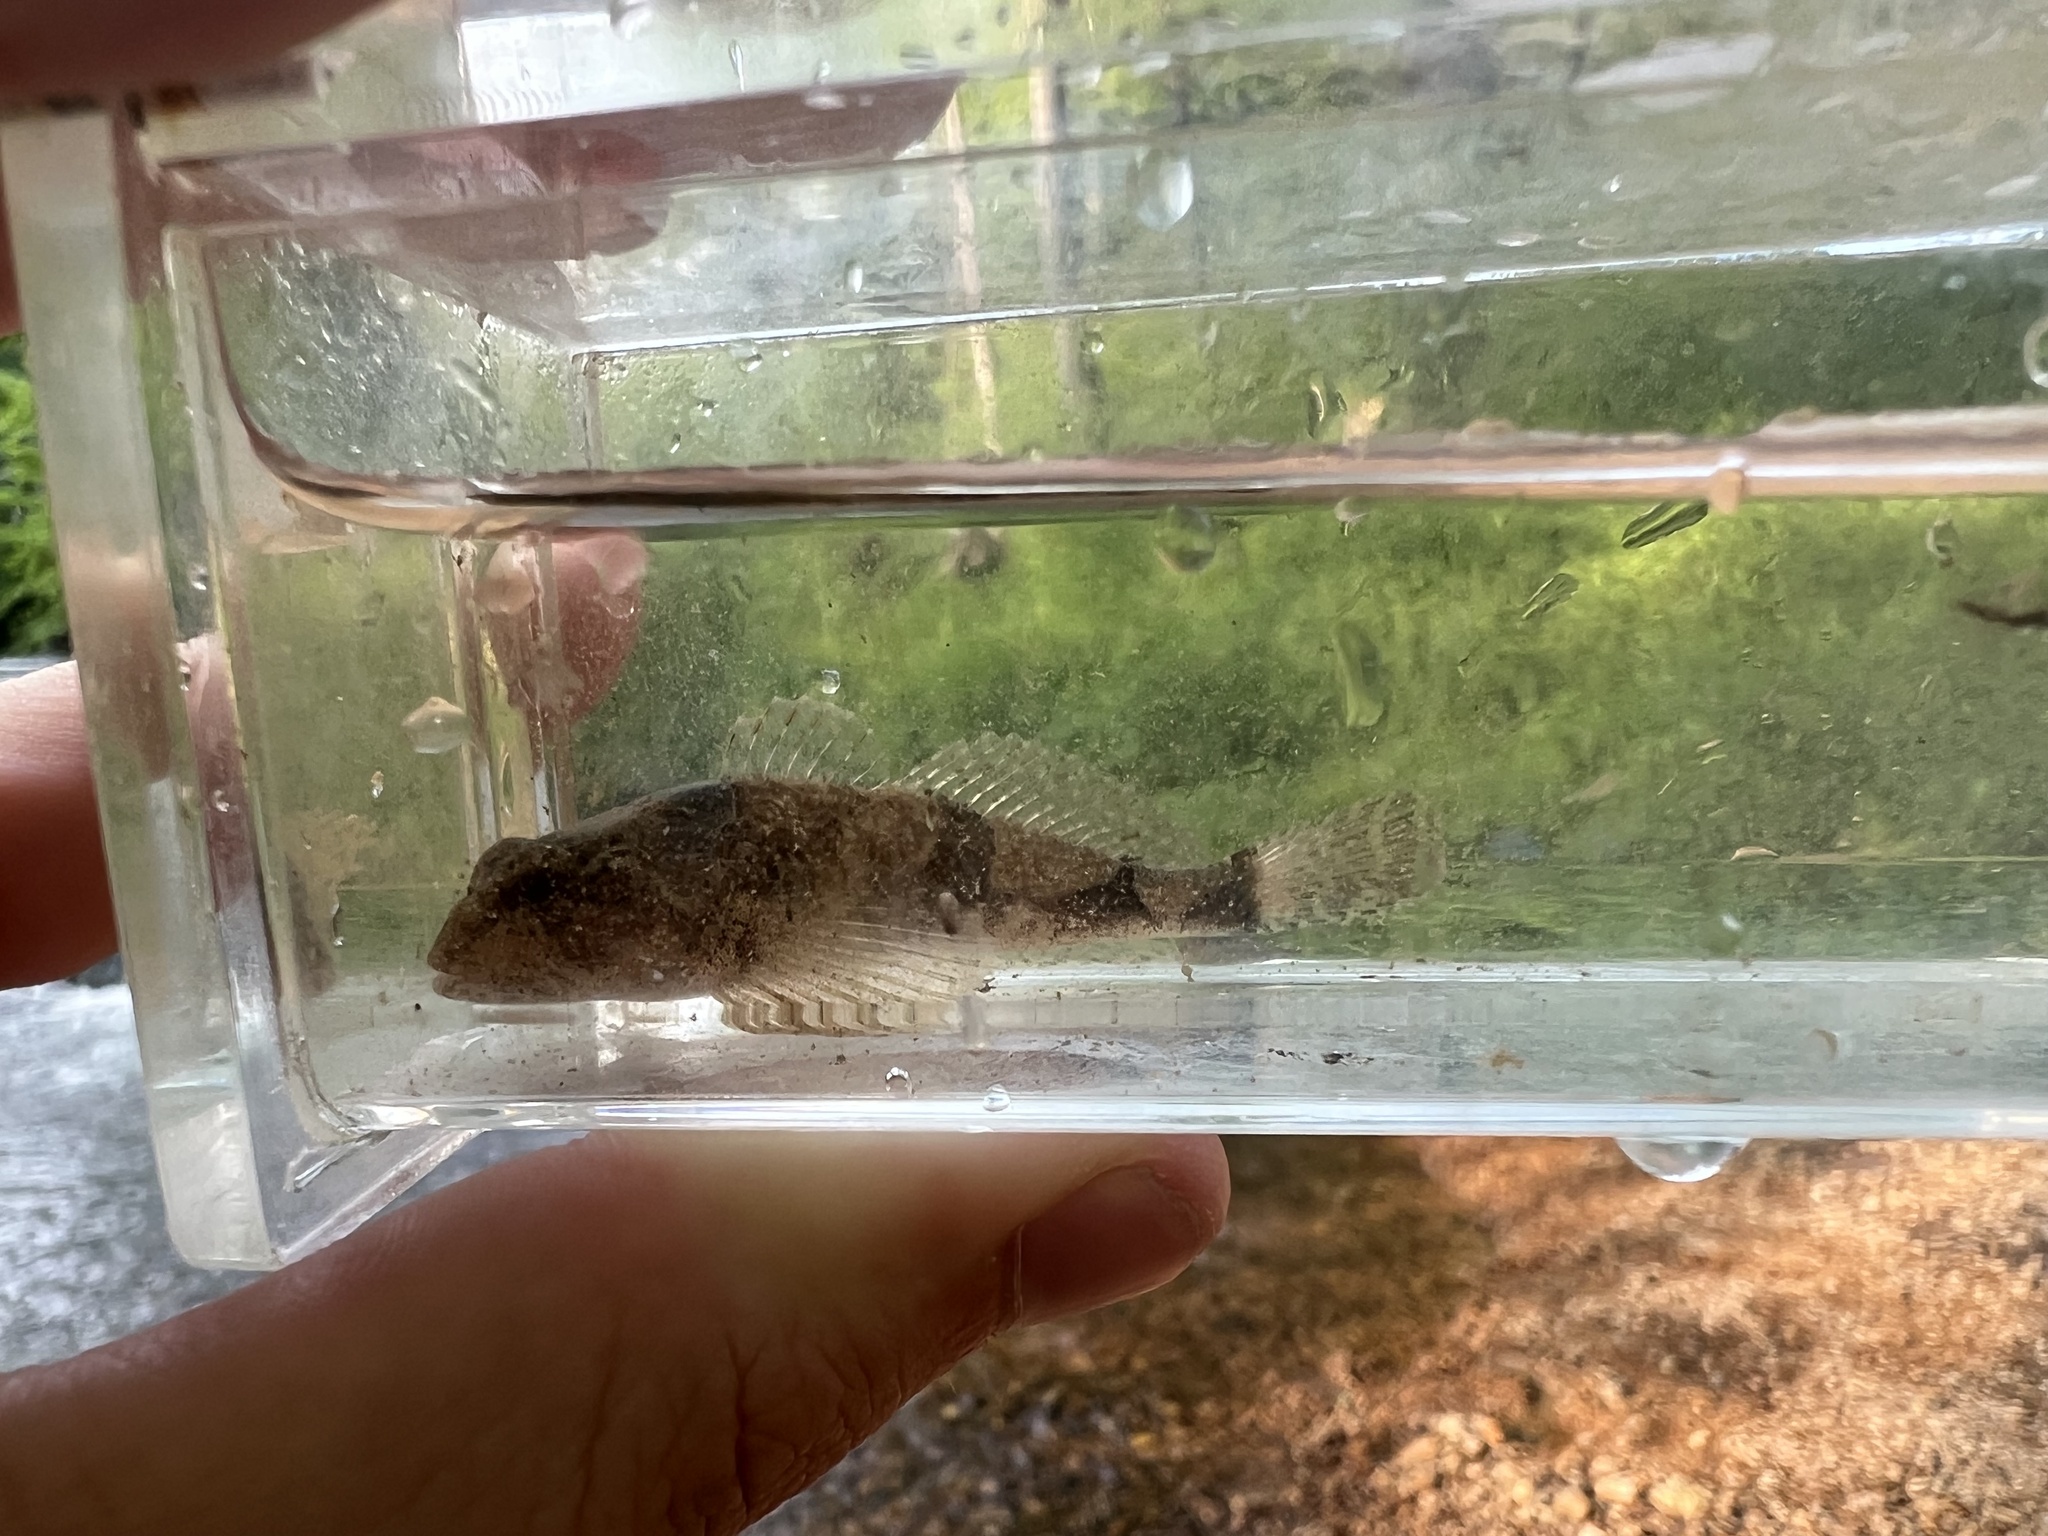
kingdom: Animalia
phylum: Chordata
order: Scorpaeniformes
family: Cottidae
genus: Cottus
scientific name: Cottus carolinae
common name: Banded sculpin
